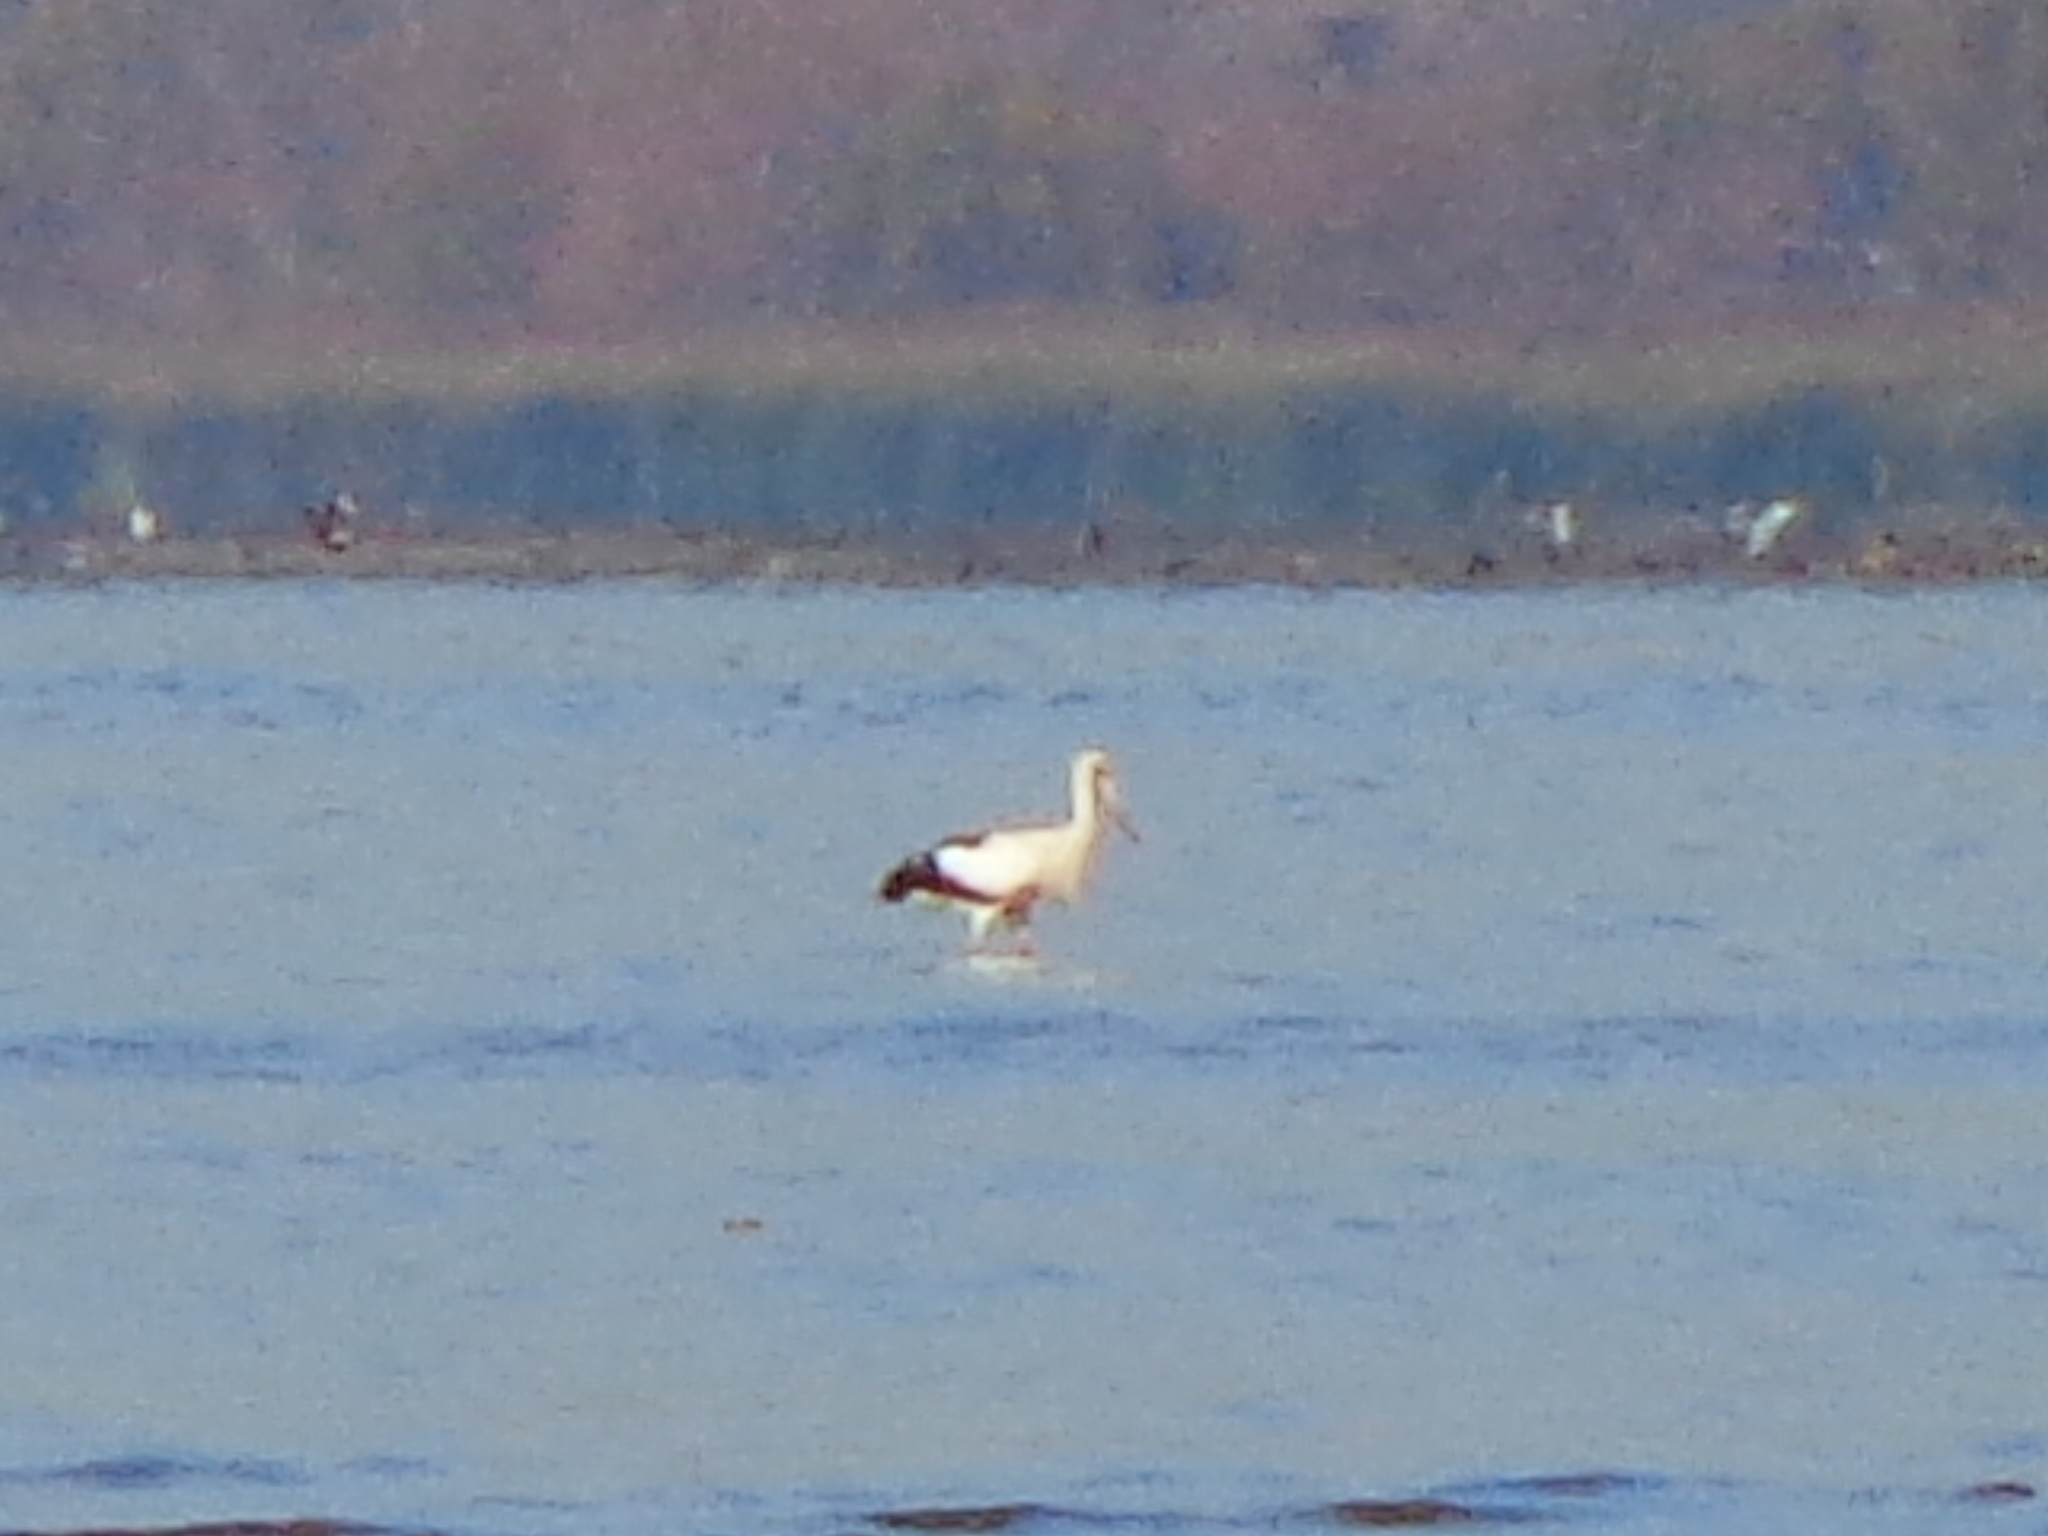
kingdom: Animalia
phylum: Chordata
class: Aves
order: Ciconiiformes
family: Ciconiidae
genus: Ciconia
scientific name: Ciconia maguari
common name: Maguari stork
